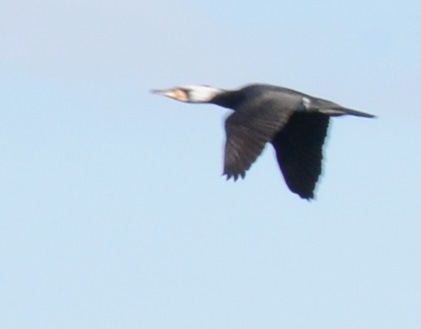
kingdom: Animalia
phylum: Chordata
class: Aves
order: Suliformes
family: Phalacrocoracidae
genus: Phalacrocorax
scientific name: Phalacrocorax carbo
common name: Great cormorant
